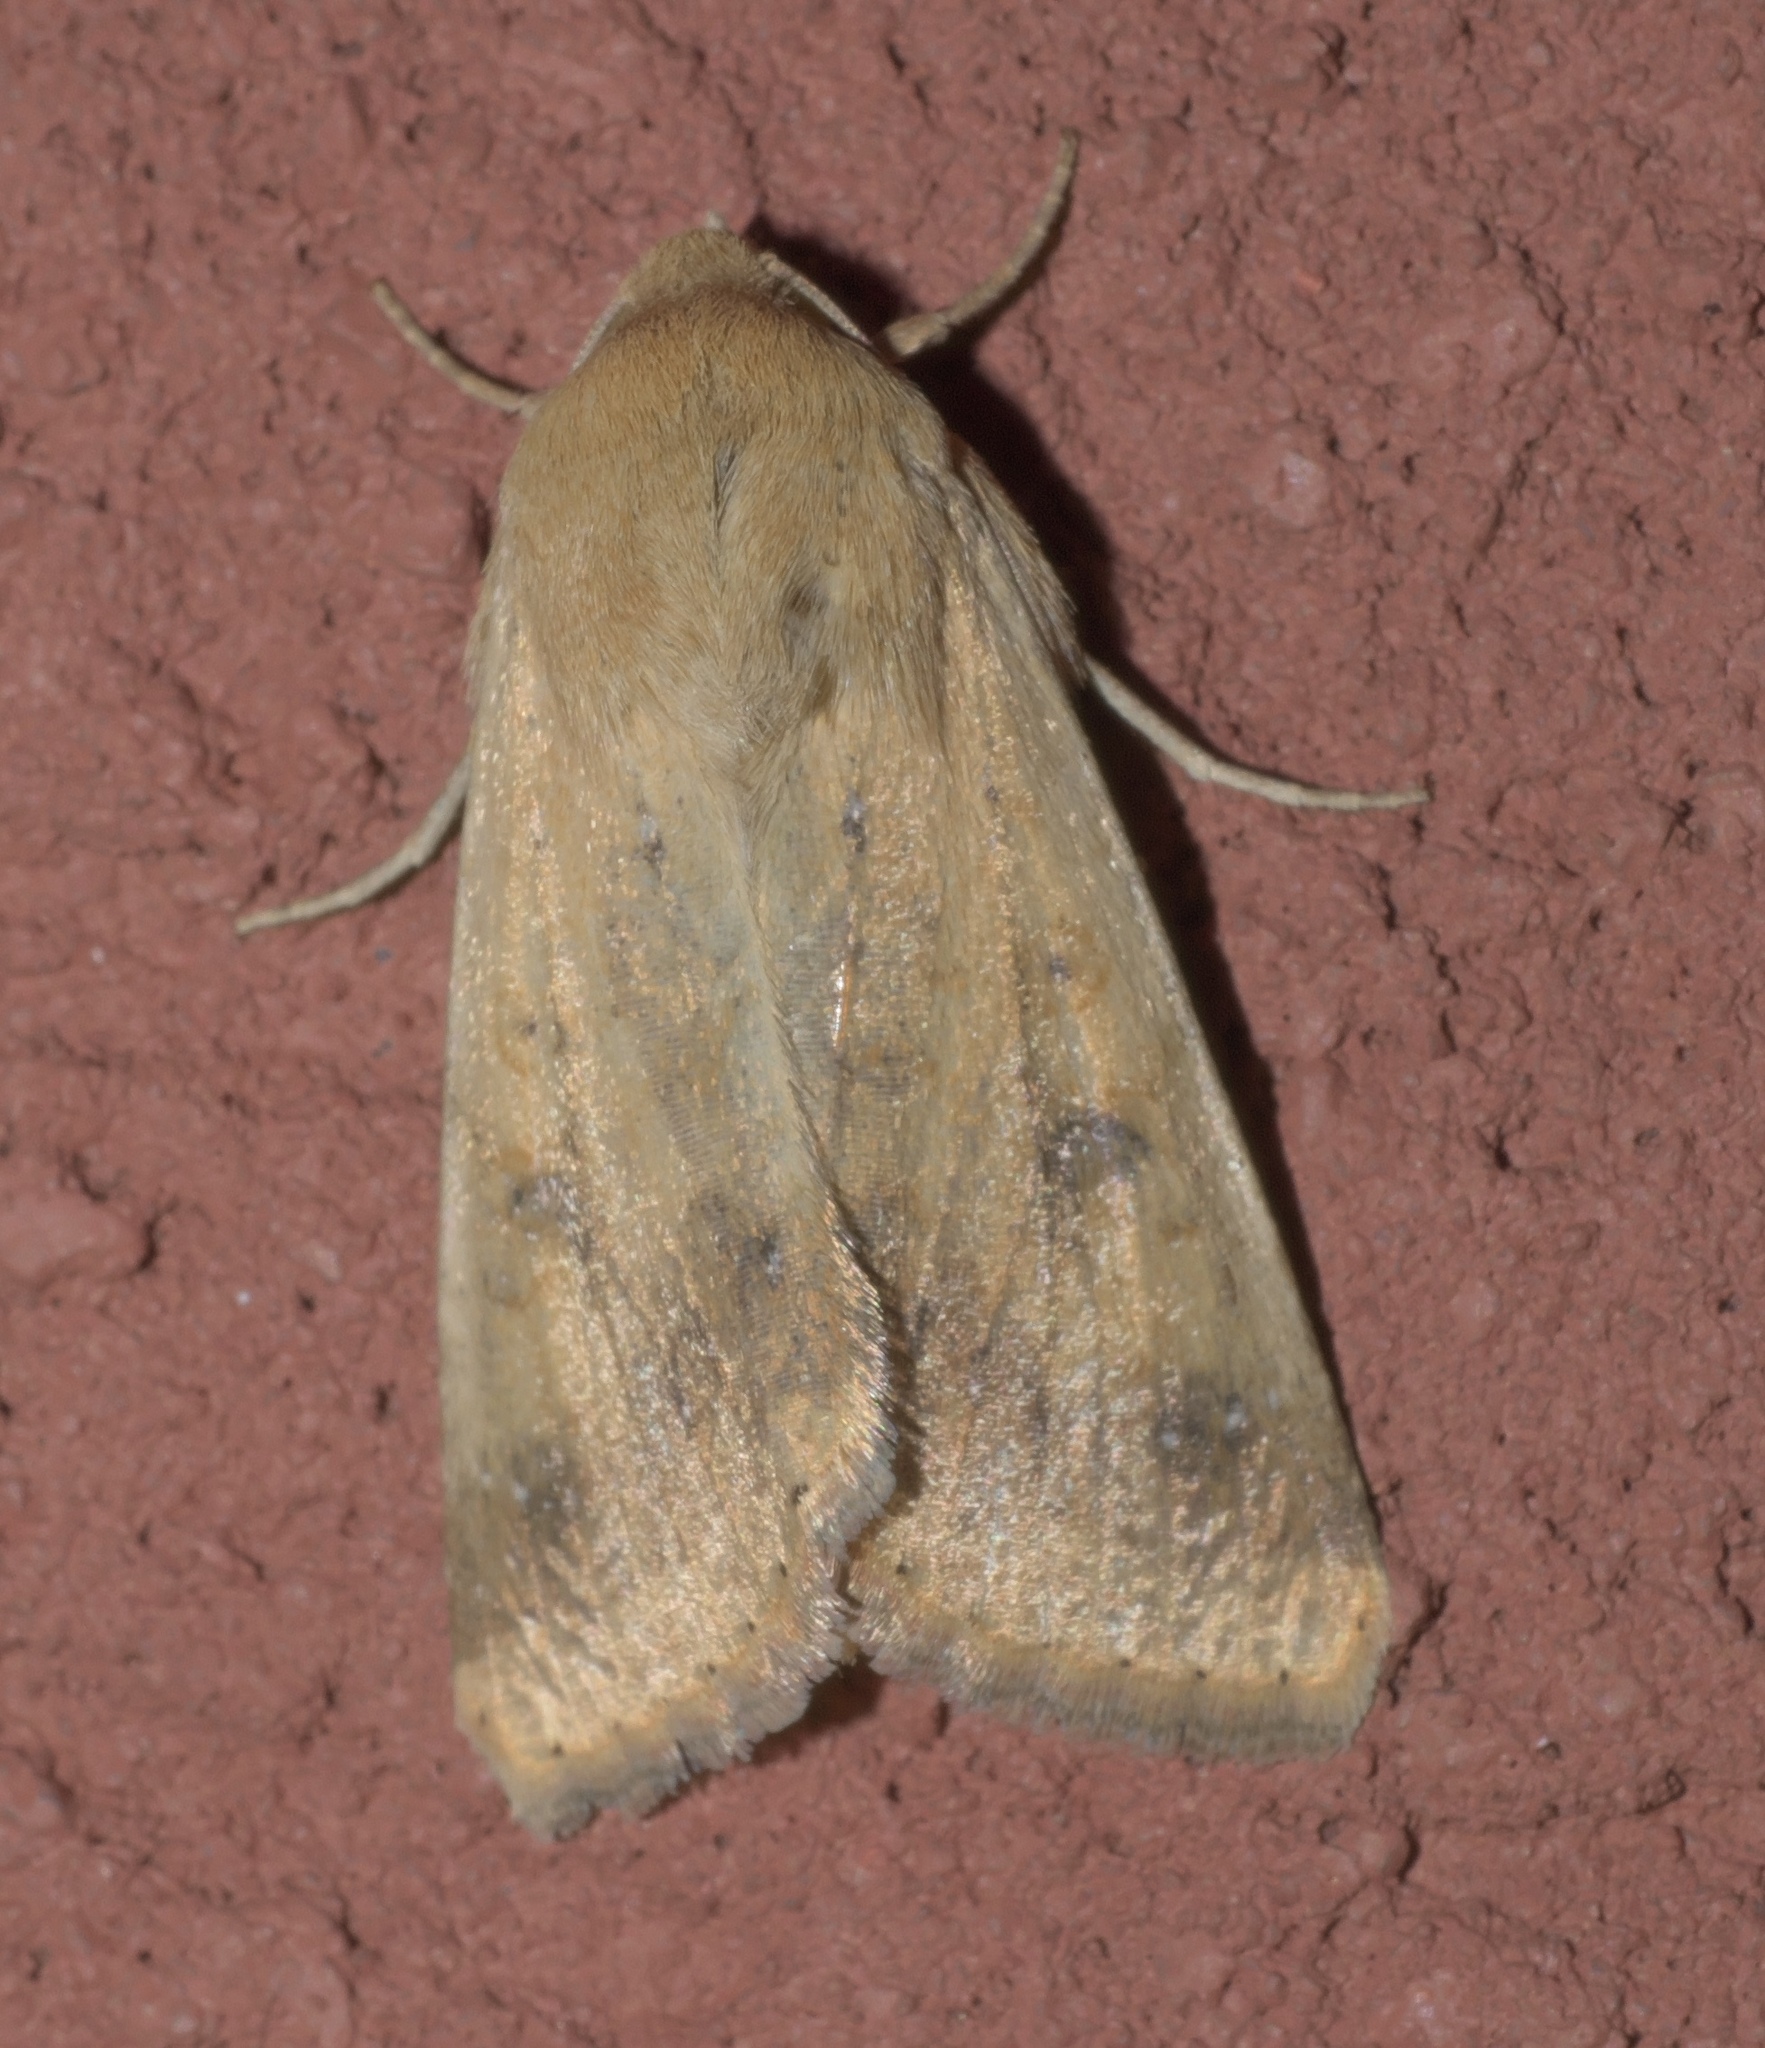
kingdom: Animalia
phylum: Arthropoda
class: Insecta
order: Lepidoptera
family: Noctuidae
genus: Helicoverpa
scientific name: Helicoverpa zea
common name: Bollworm
